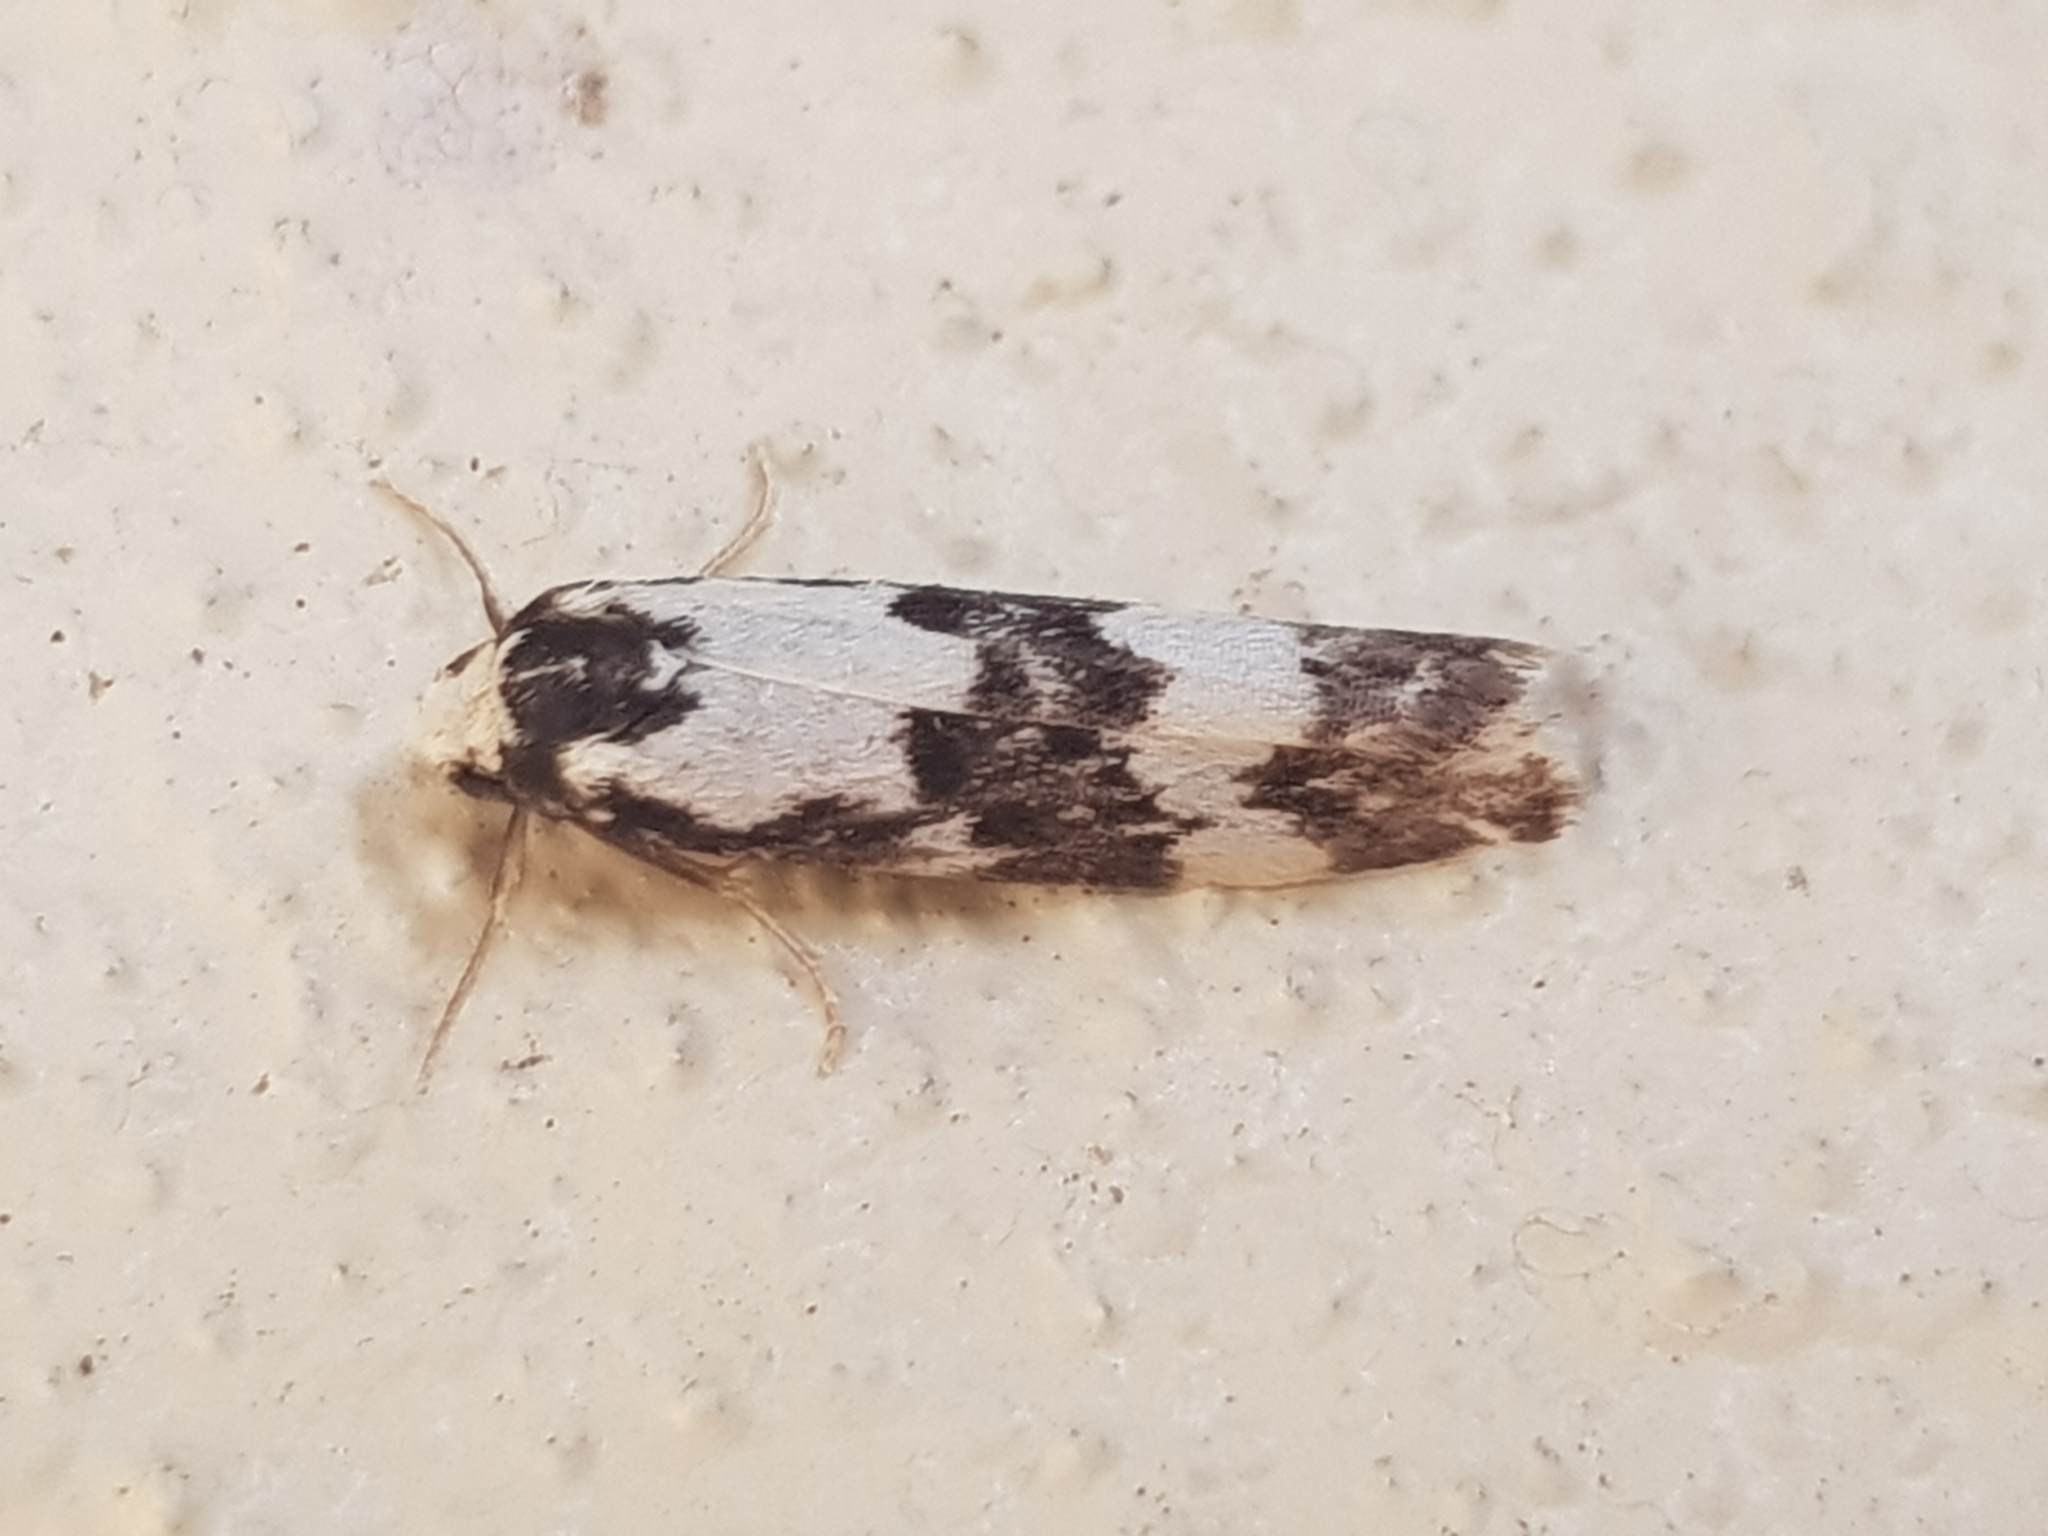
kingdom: Animalia
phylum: Arthropoda
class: Insecta
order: Lepidoptera
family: Erebidae
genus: Arrhythmica
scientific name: Arrhythmica semifusca
